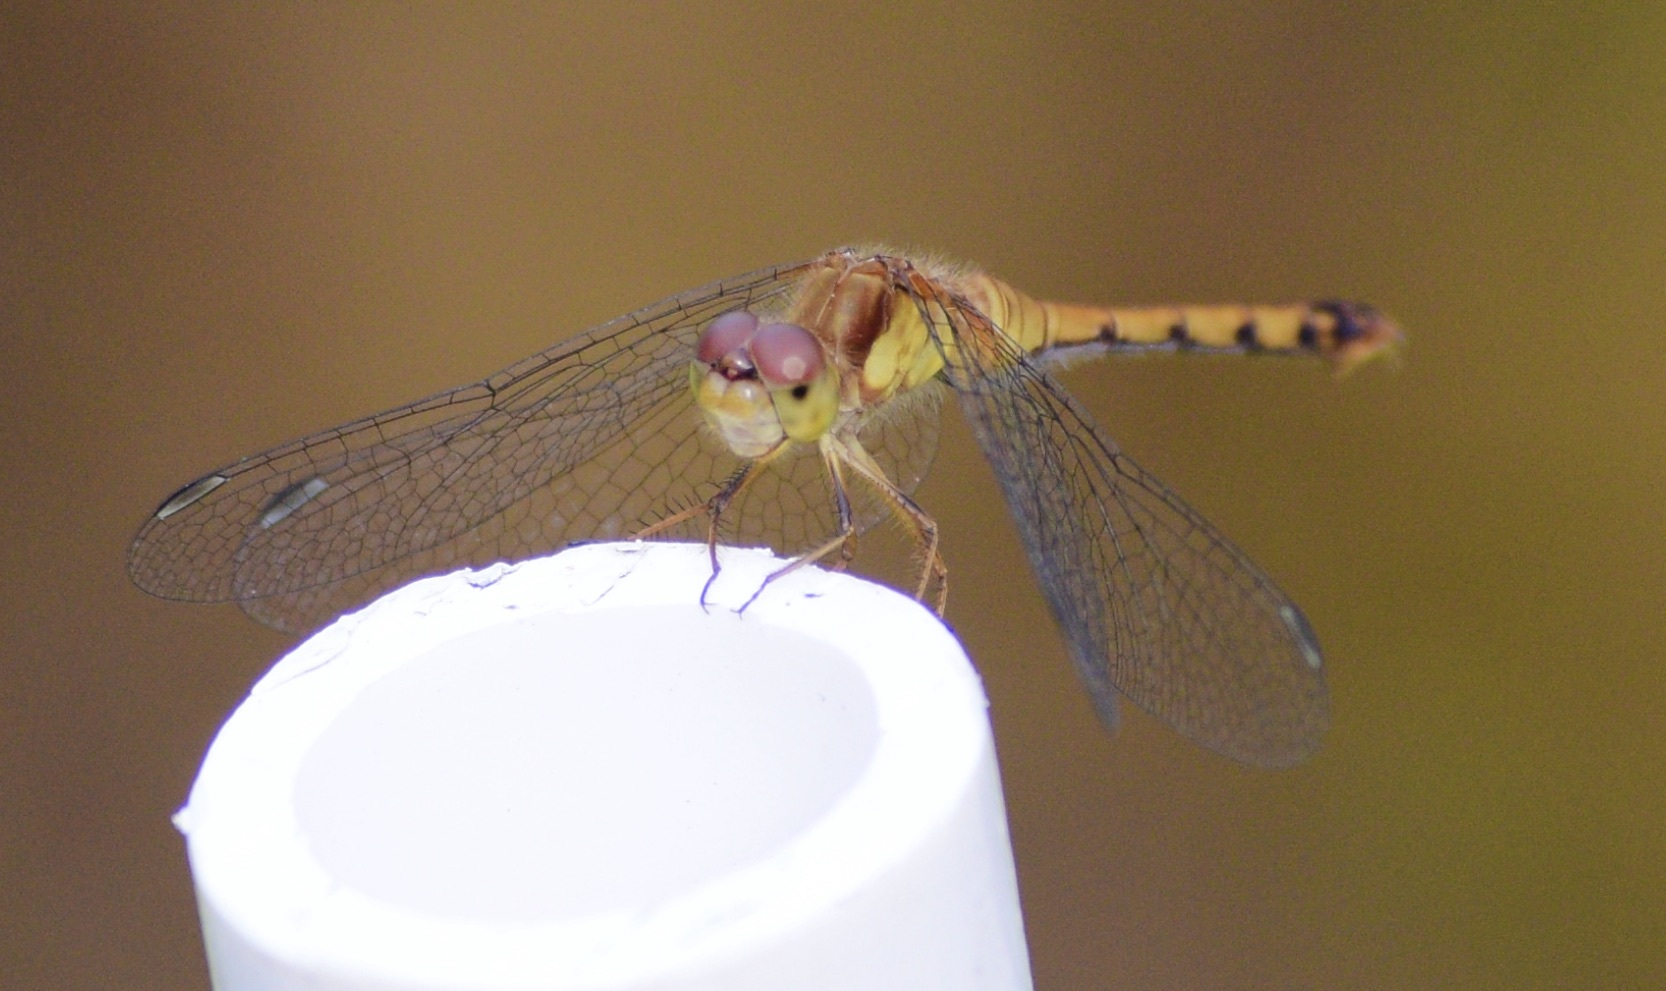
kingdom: Animalia
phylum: Arthropoda
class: Insecta
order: Odonata
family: Libellulidae
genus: Sympetrum
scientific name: Sympetrum vicinum
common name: Autumn meadowhawk
